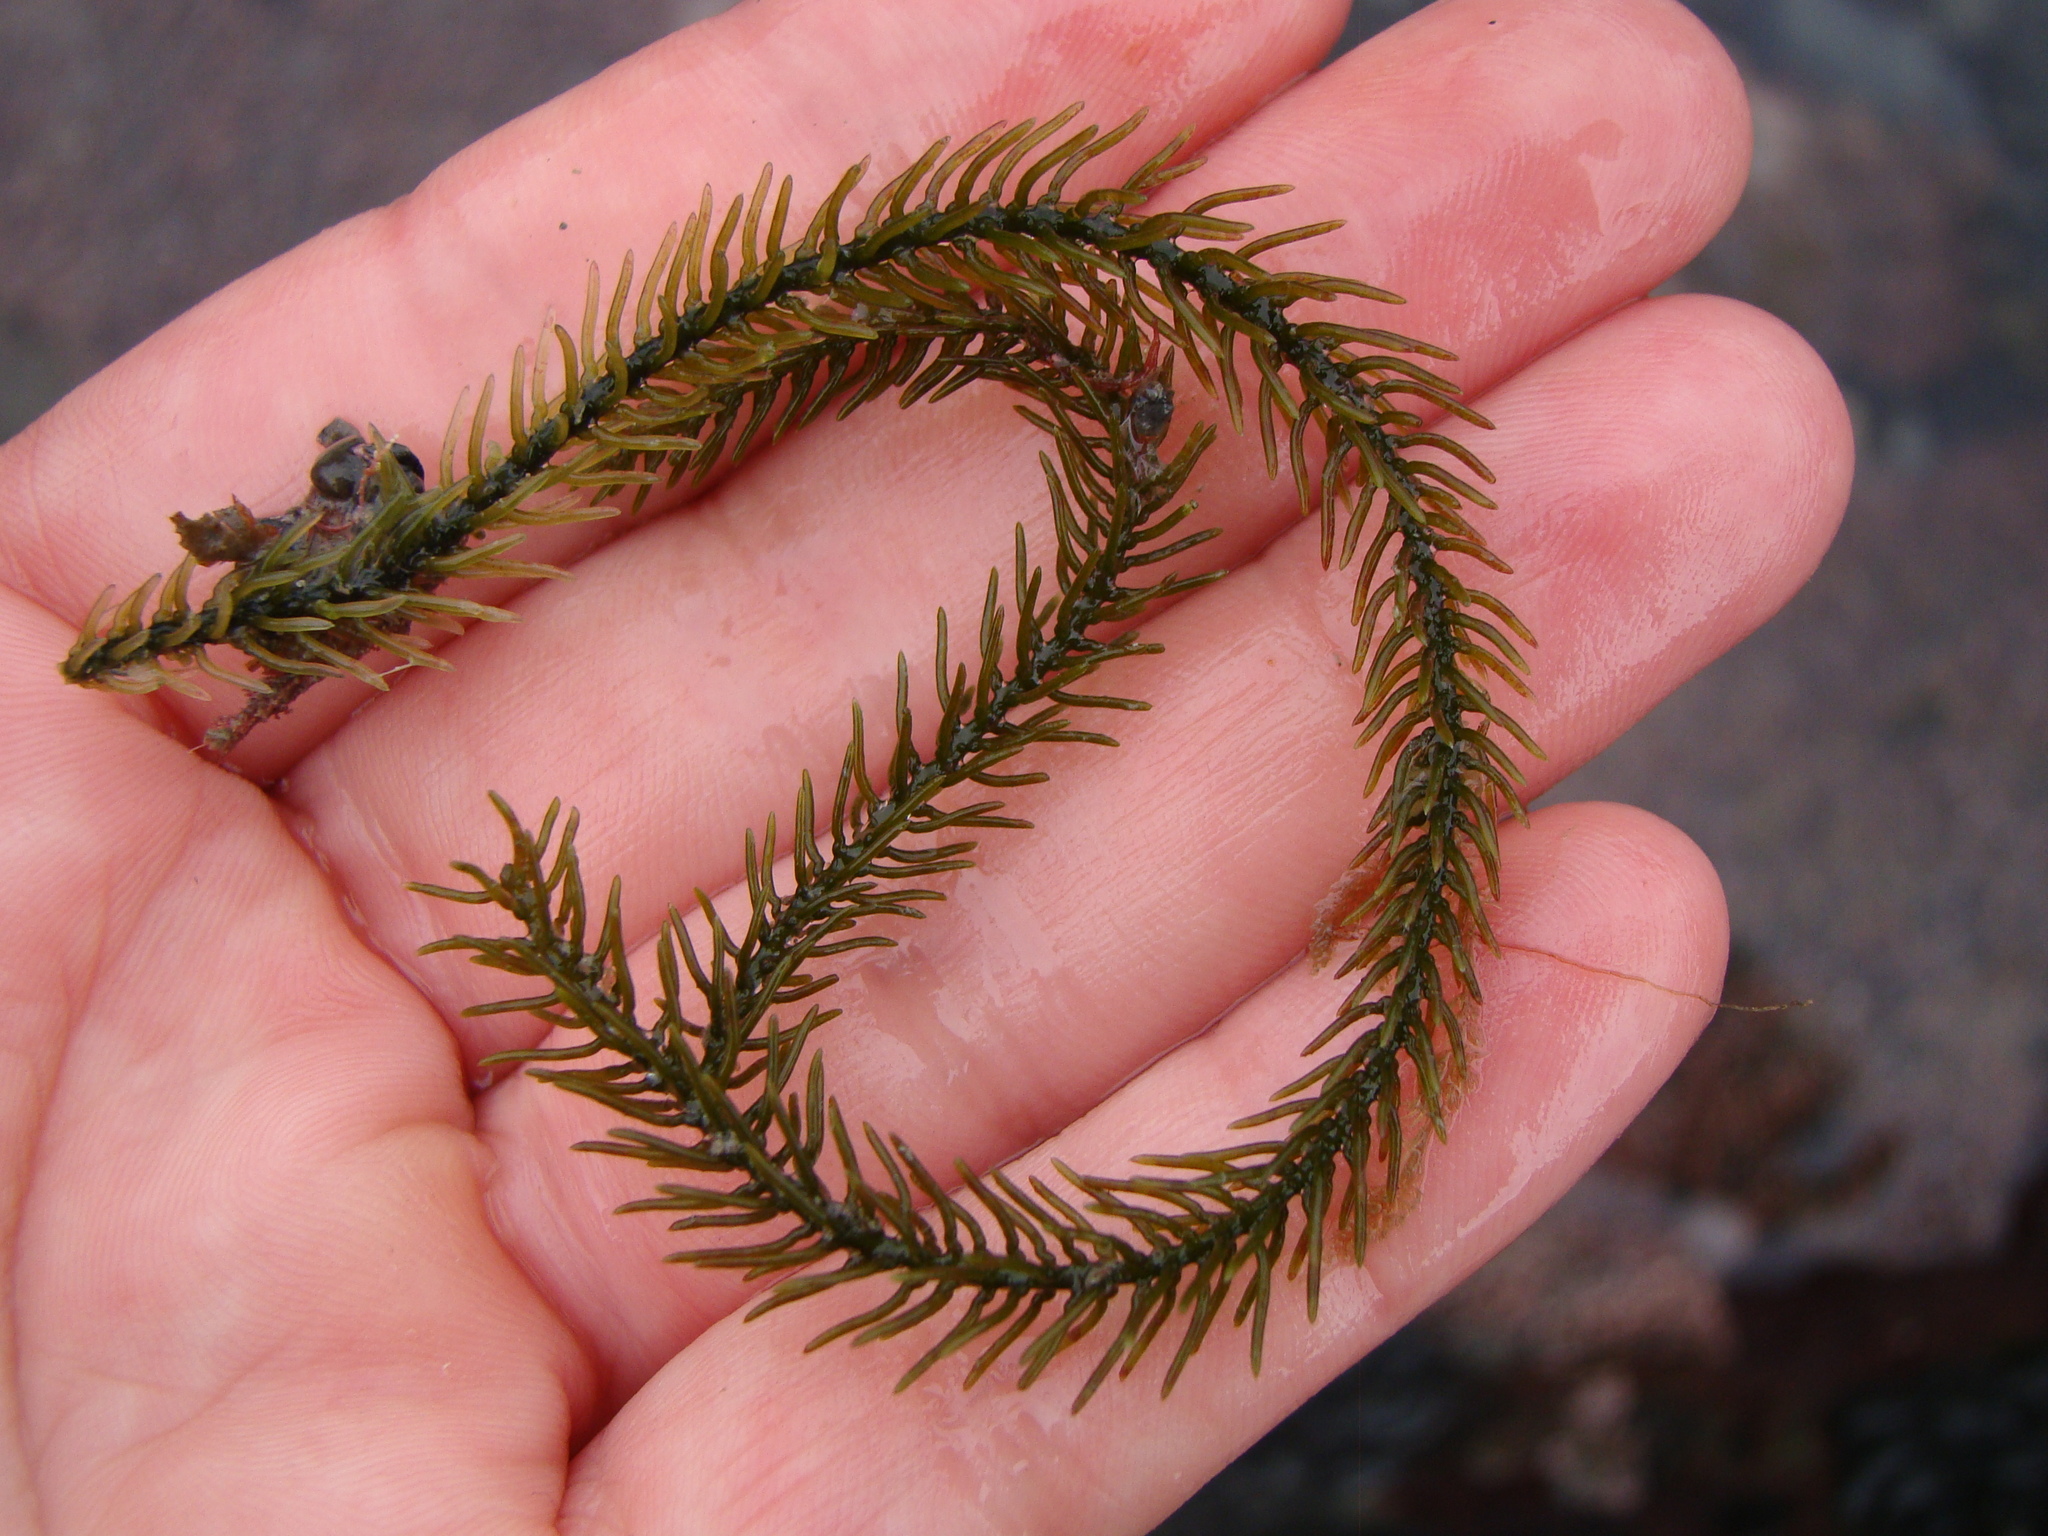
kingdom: Plantae
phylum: Chlorophyta
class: Ulvophyceae
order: Bryopsidales
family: Caulerpaceae
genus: Caulerpa
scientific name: Caulerpa brownii
